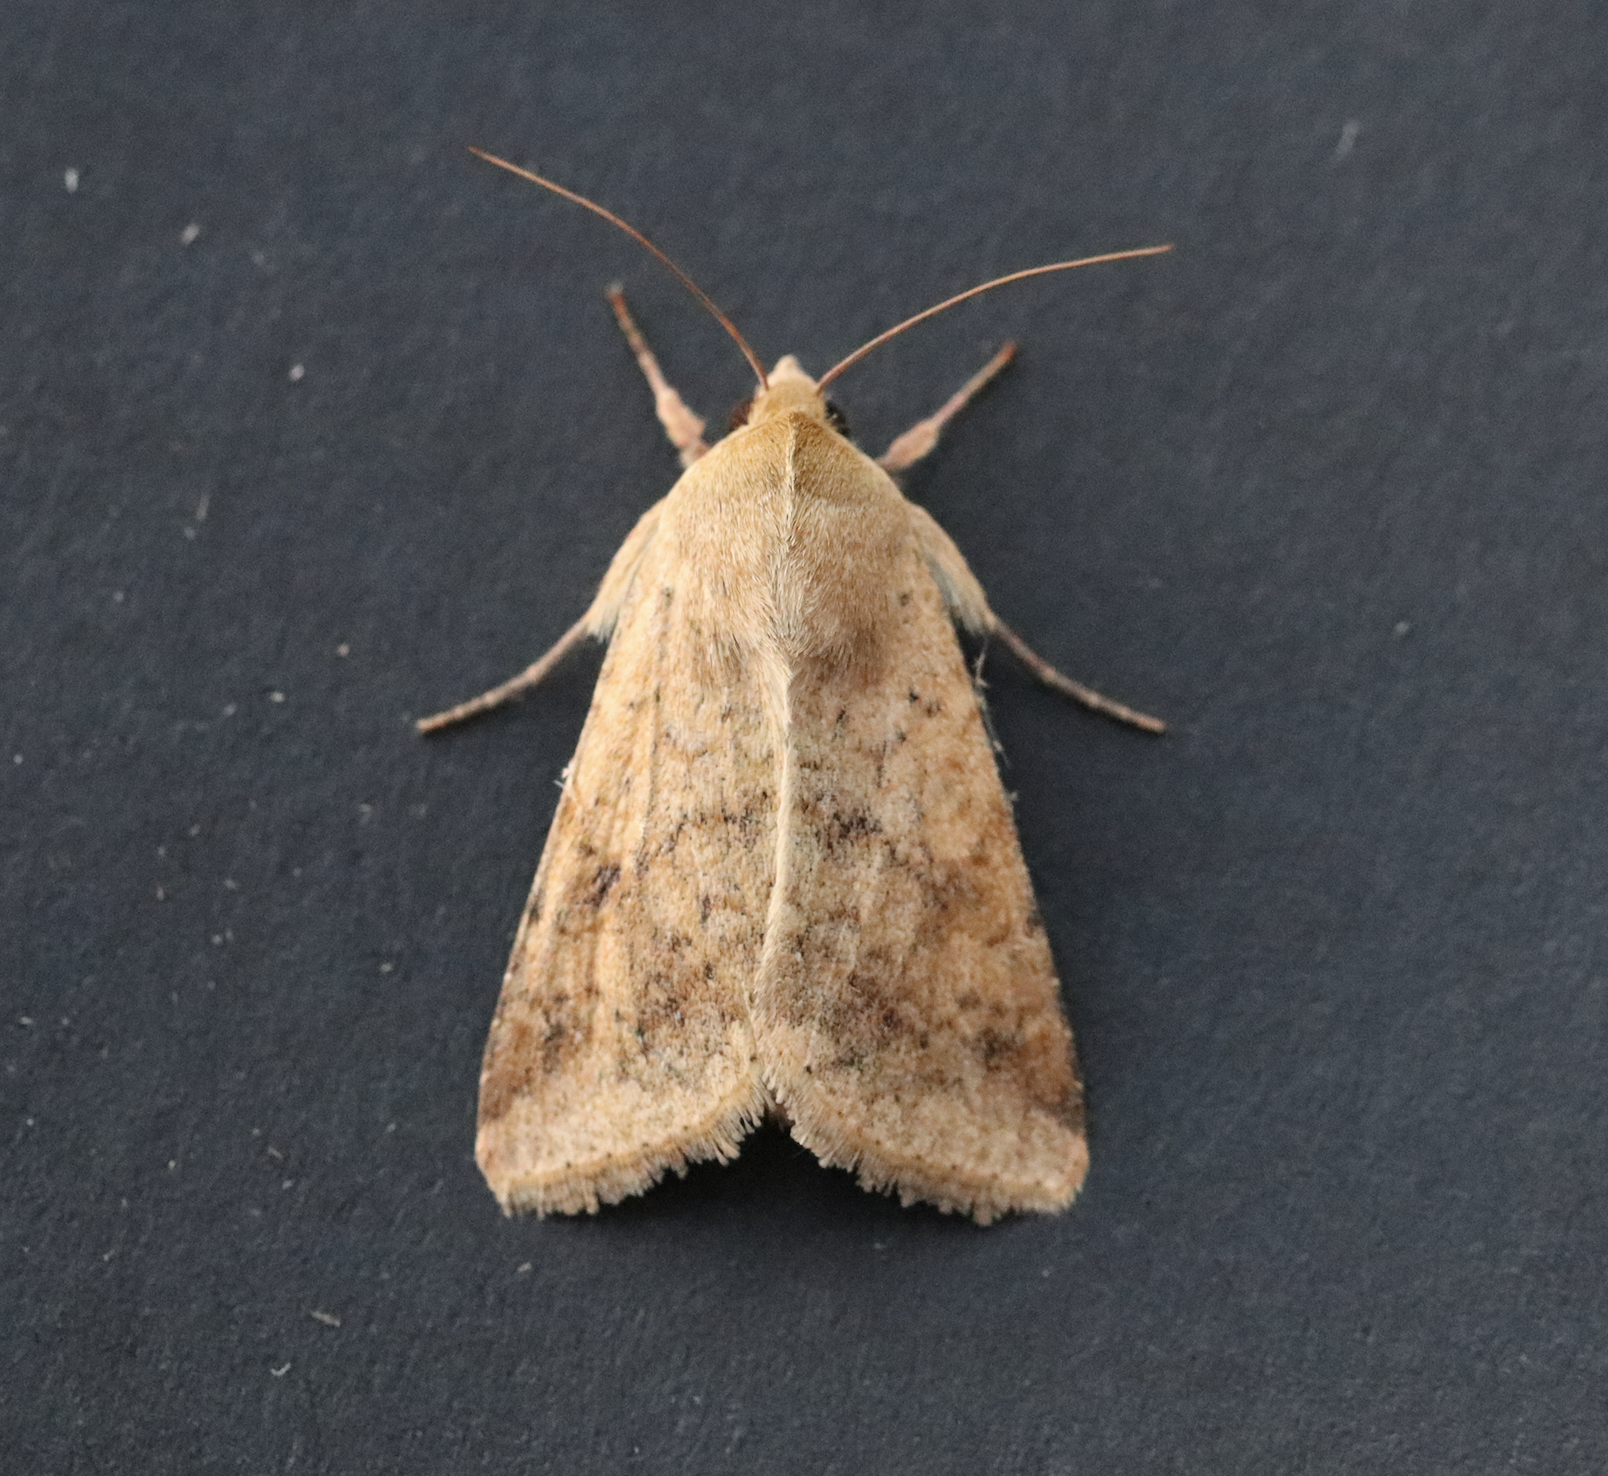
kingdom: Animalia
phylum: Arthropoda
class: Insecta
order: Lepidoptera
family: Noctuidae
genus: Helicoverpa
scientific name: Helicoverpa armigera
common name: Cotton bollworm
